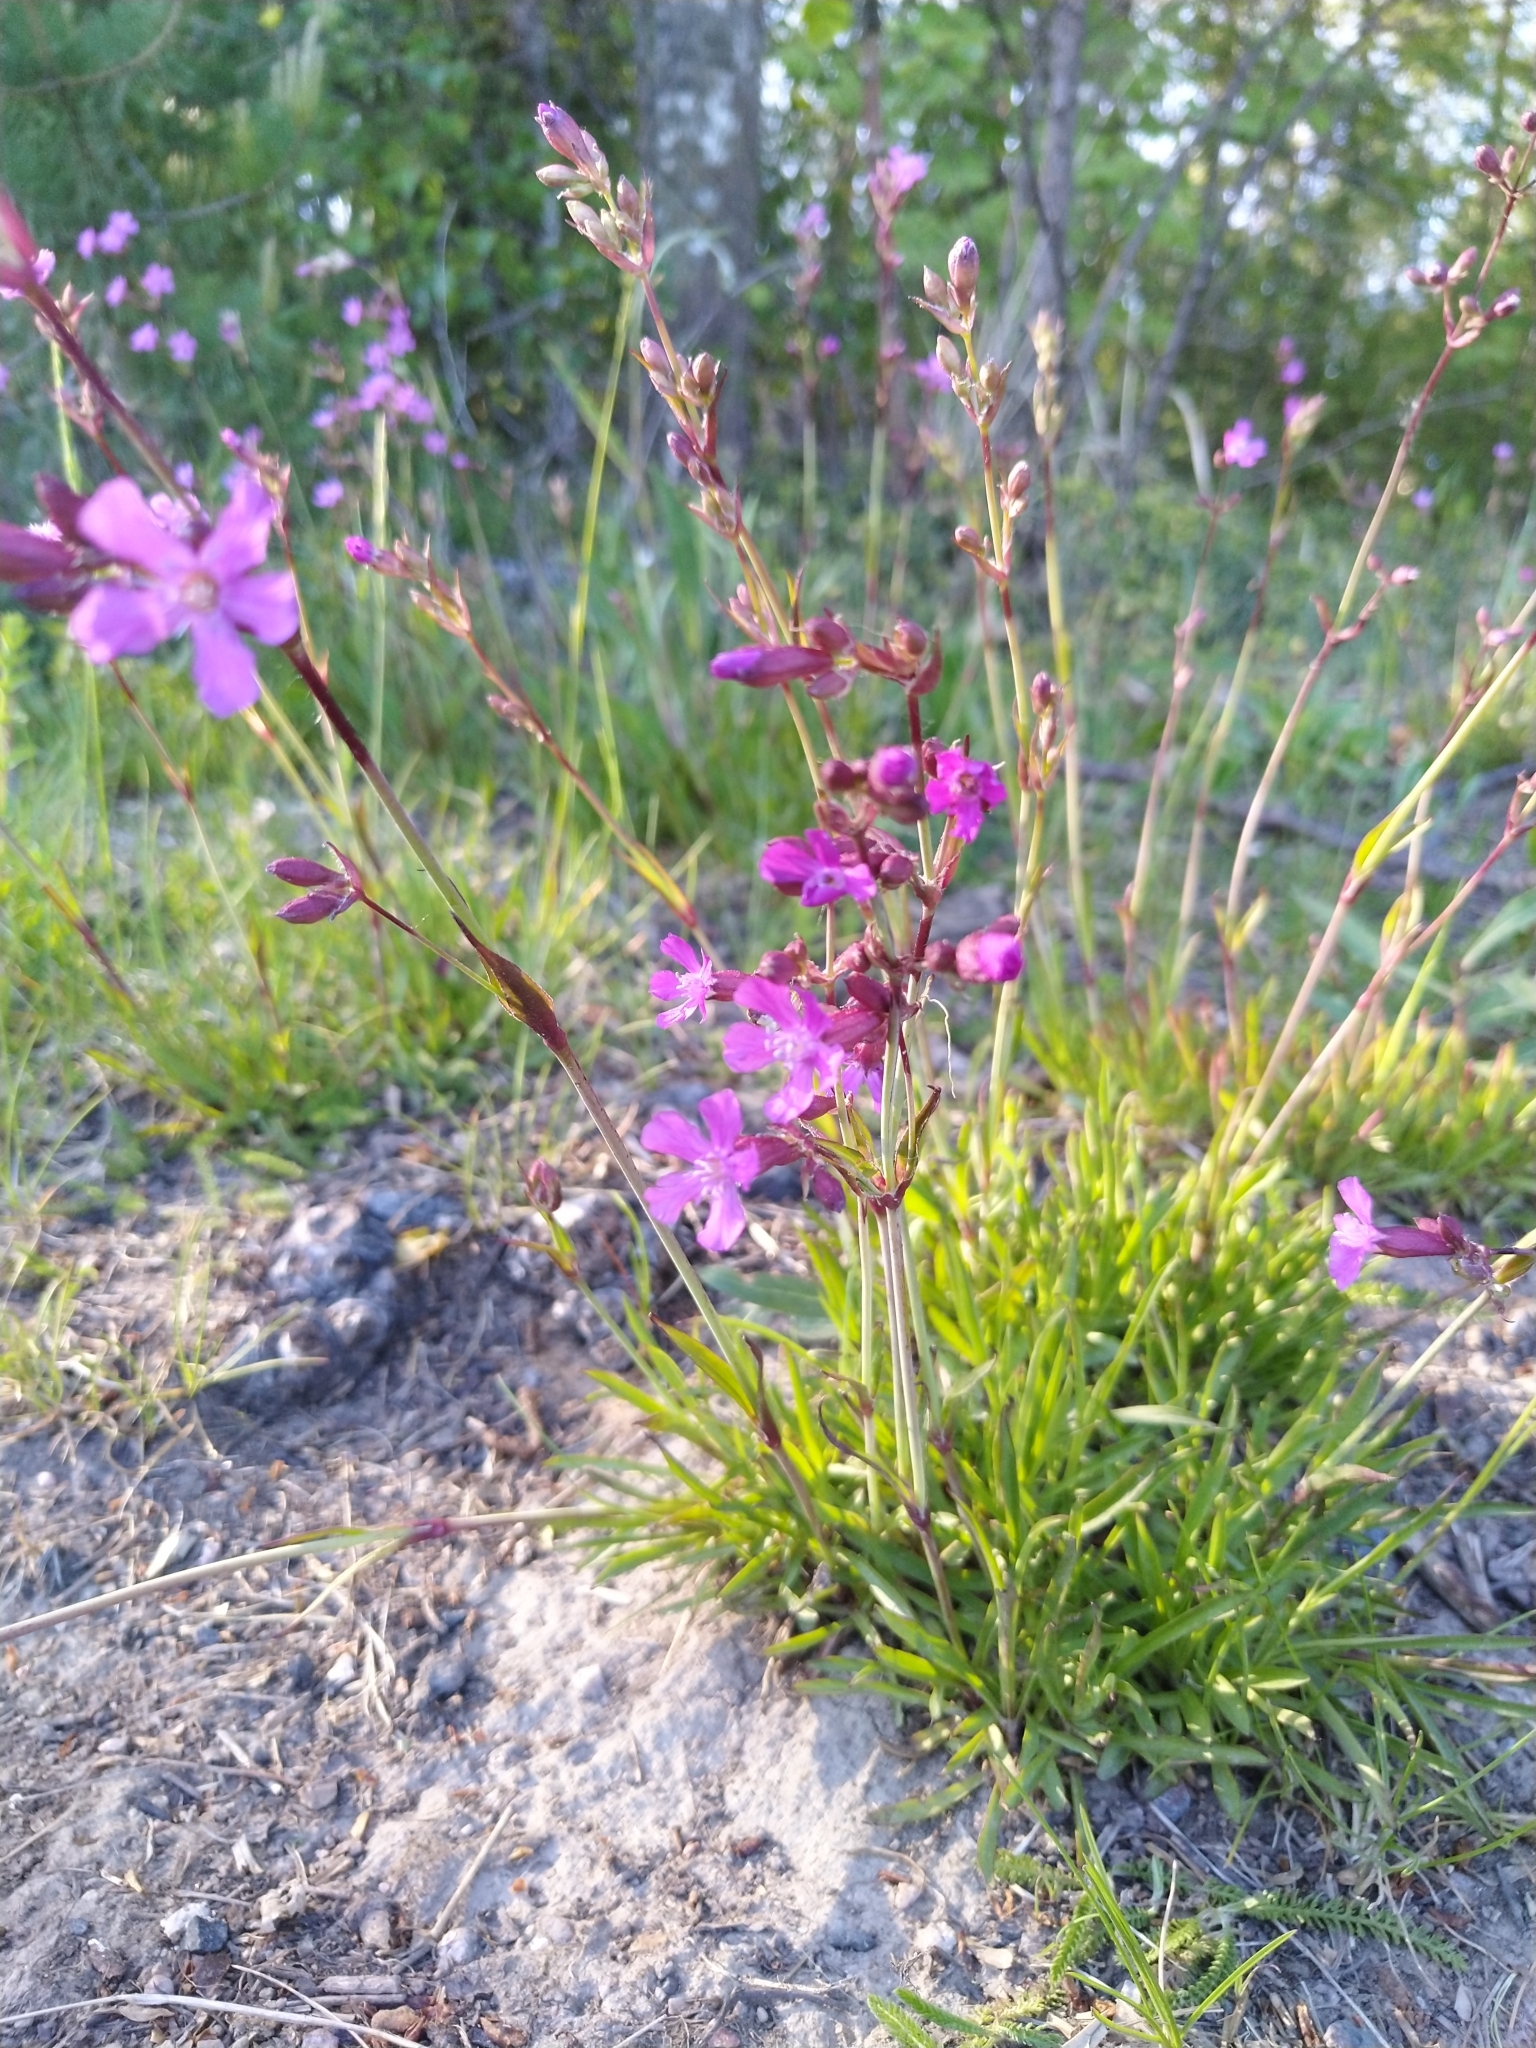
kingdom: Plantae
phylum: Tracheophyta
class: Magnoliopsida
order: Caryophyllales
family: Caryophyllaceae
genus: Viscaria
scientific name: Viscaria vulgaris
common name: Clammy campion
